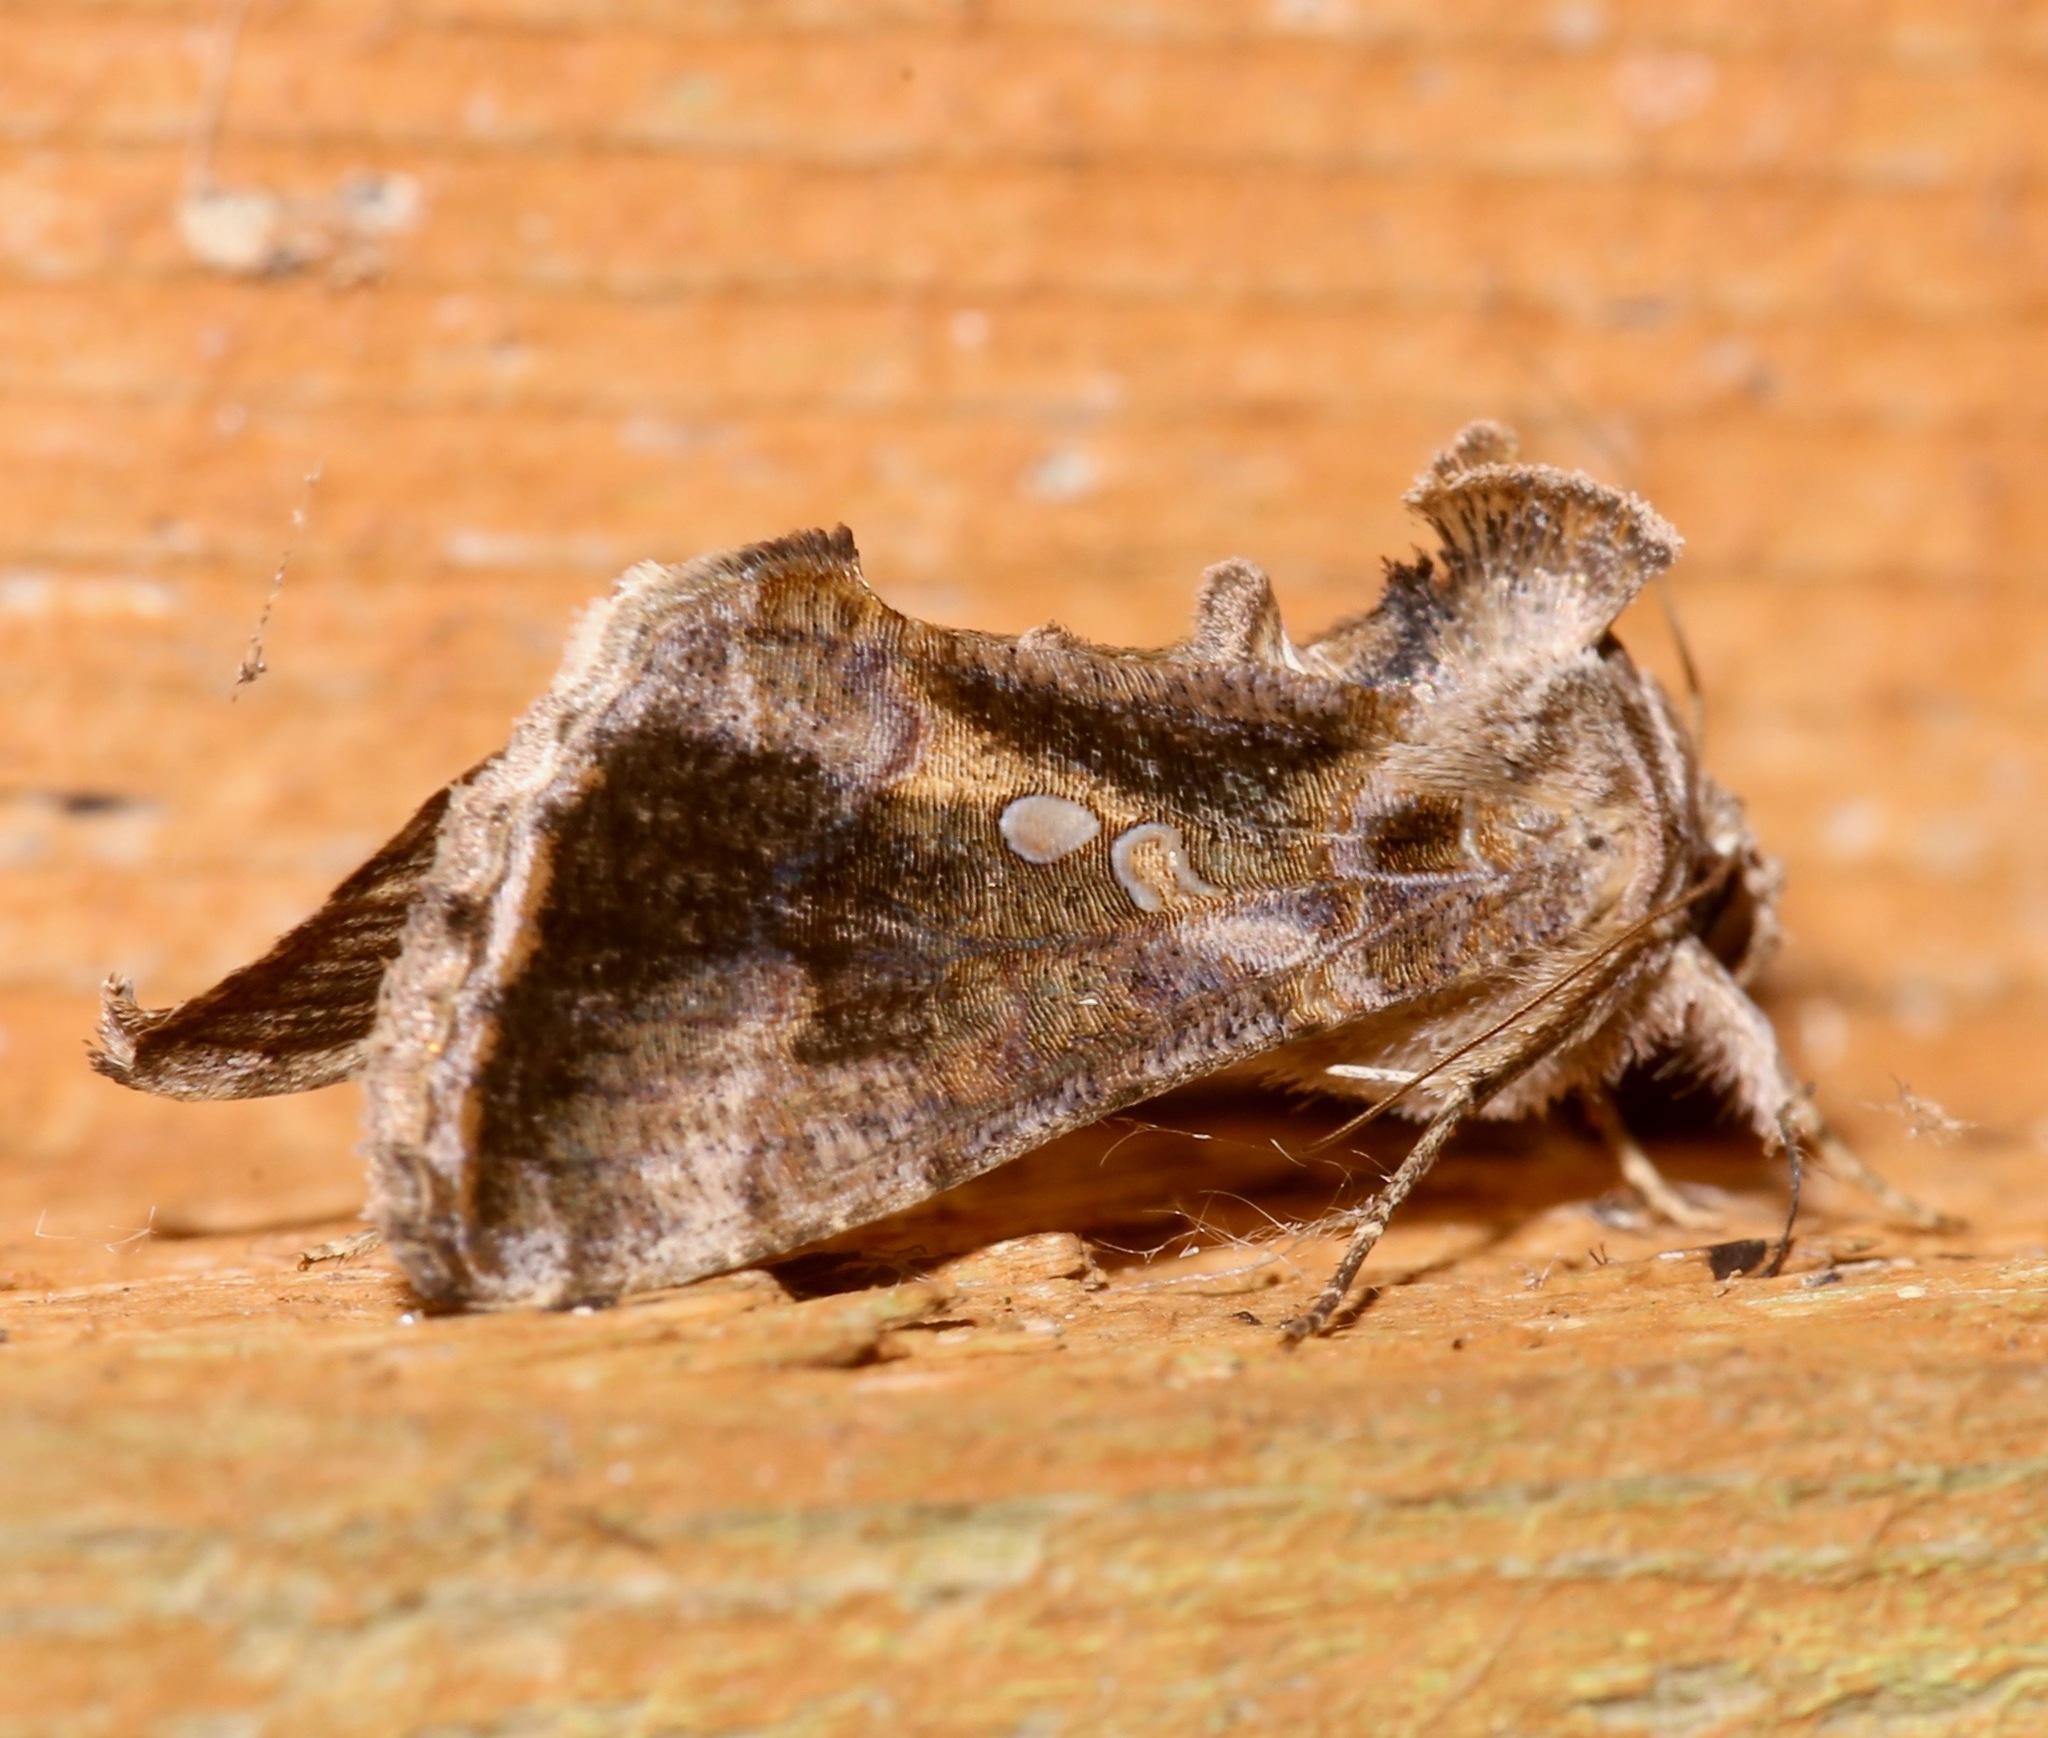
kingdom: Animalia
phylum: Arthropoda
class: Insecta
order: Lepidoptera
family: Noctuidae
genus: Chrysodeixis
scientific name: Chrysodeixis includens
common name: Cutworm moth
